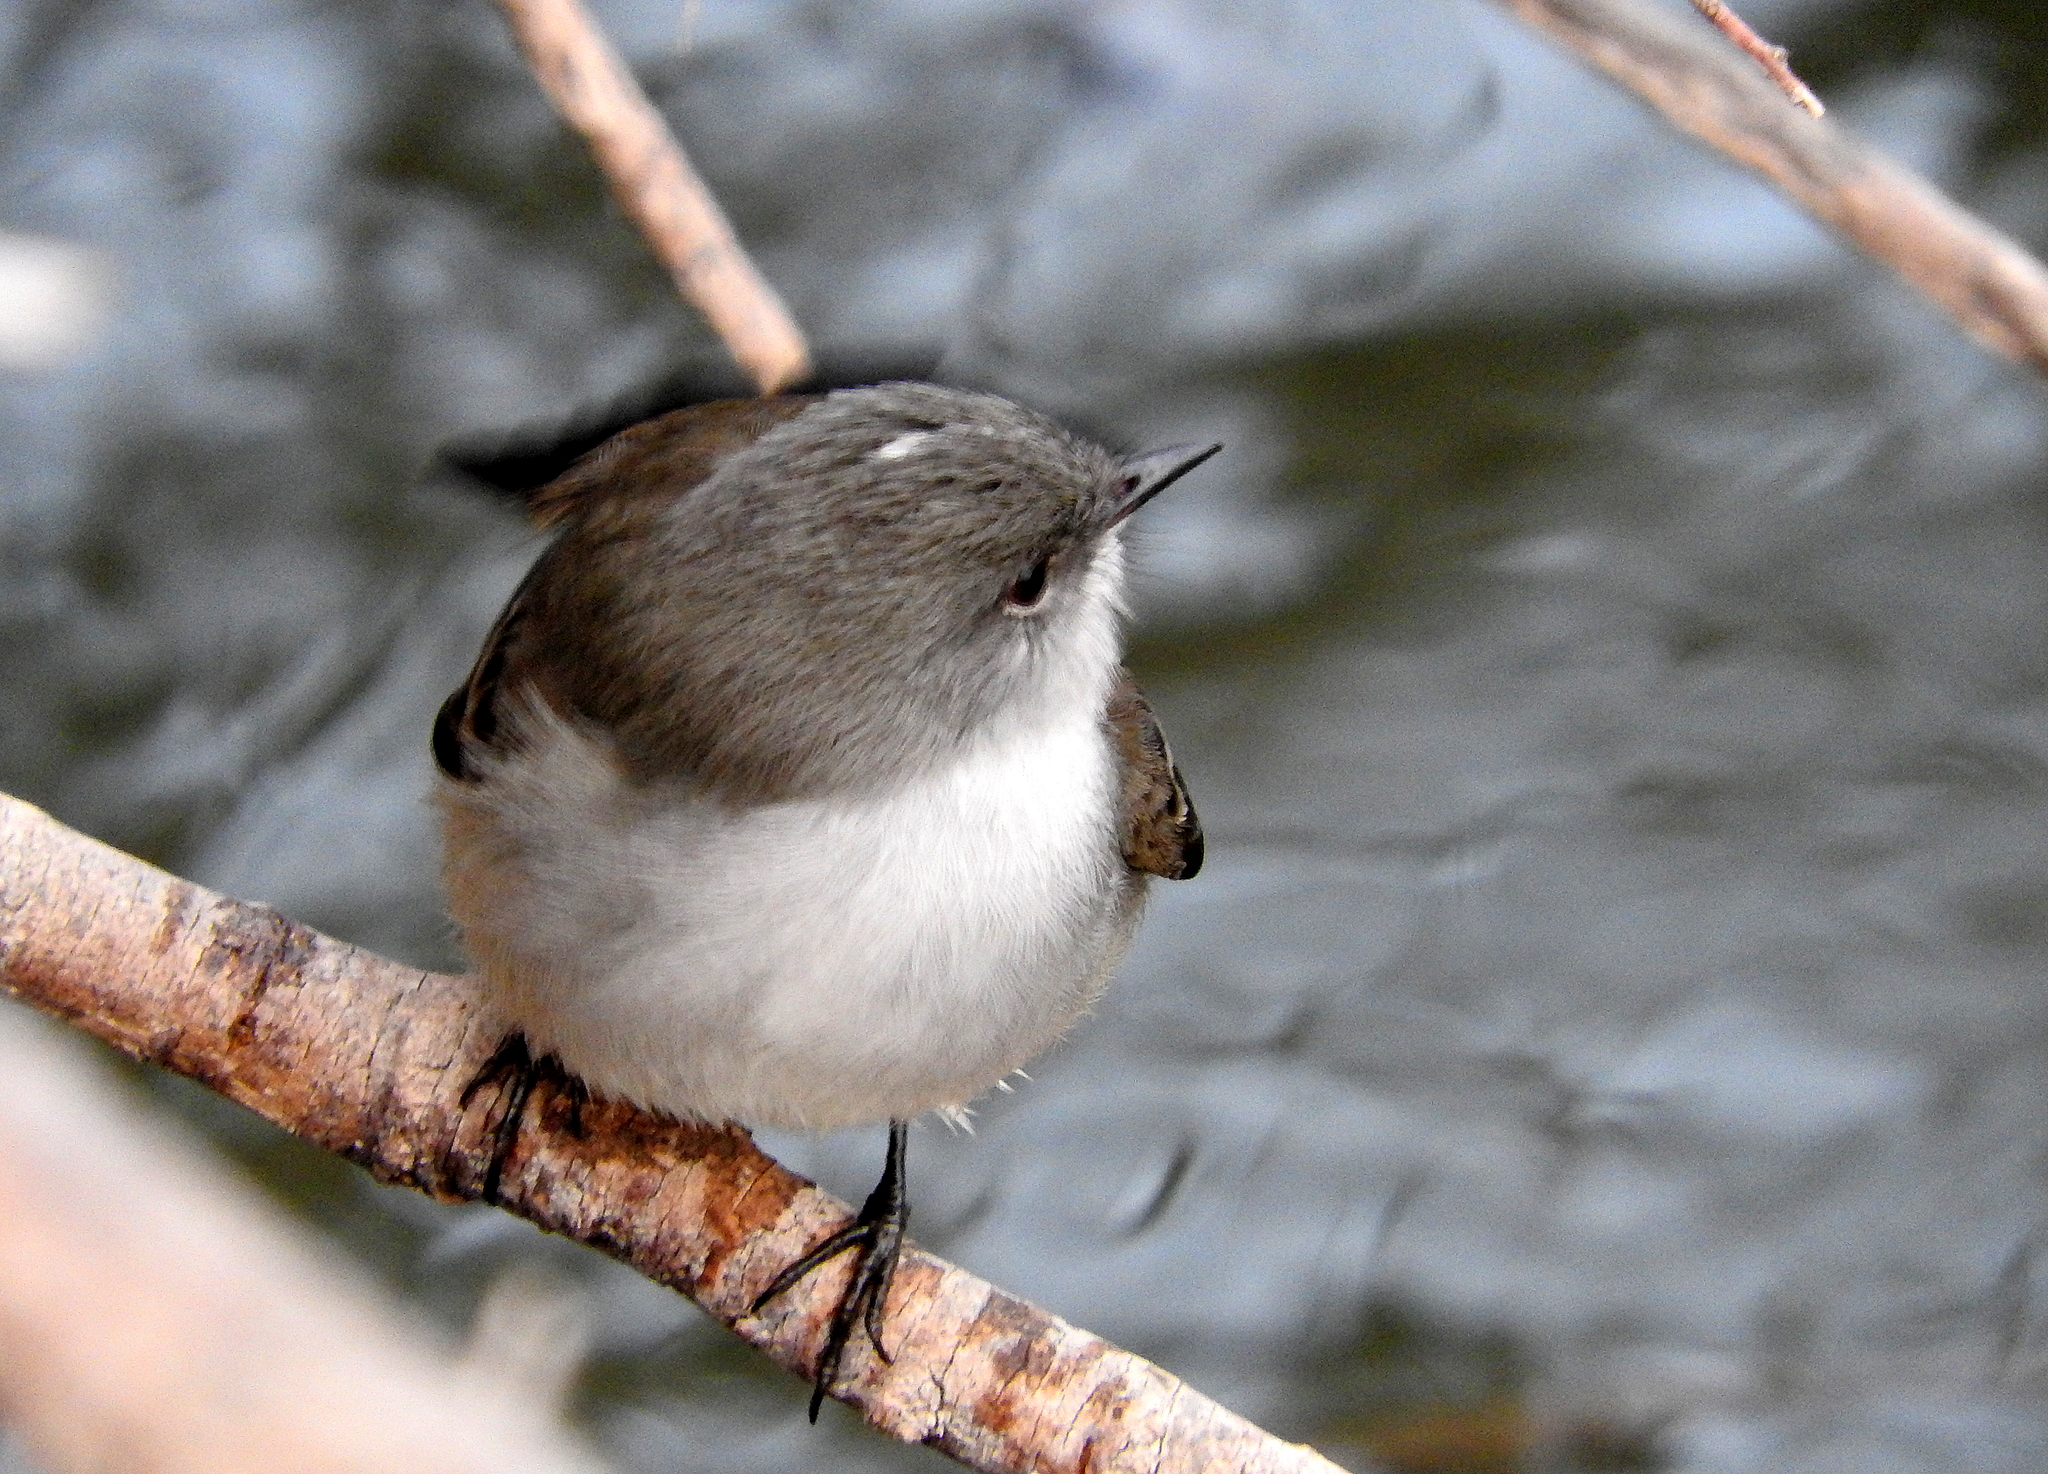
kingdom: Animalia
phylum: Chordata
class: Aves
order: Passeriformes
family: Tyrannidae
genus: Serpophaga
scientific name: Serpophaga nigricans
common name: Sooty tyrannulet
